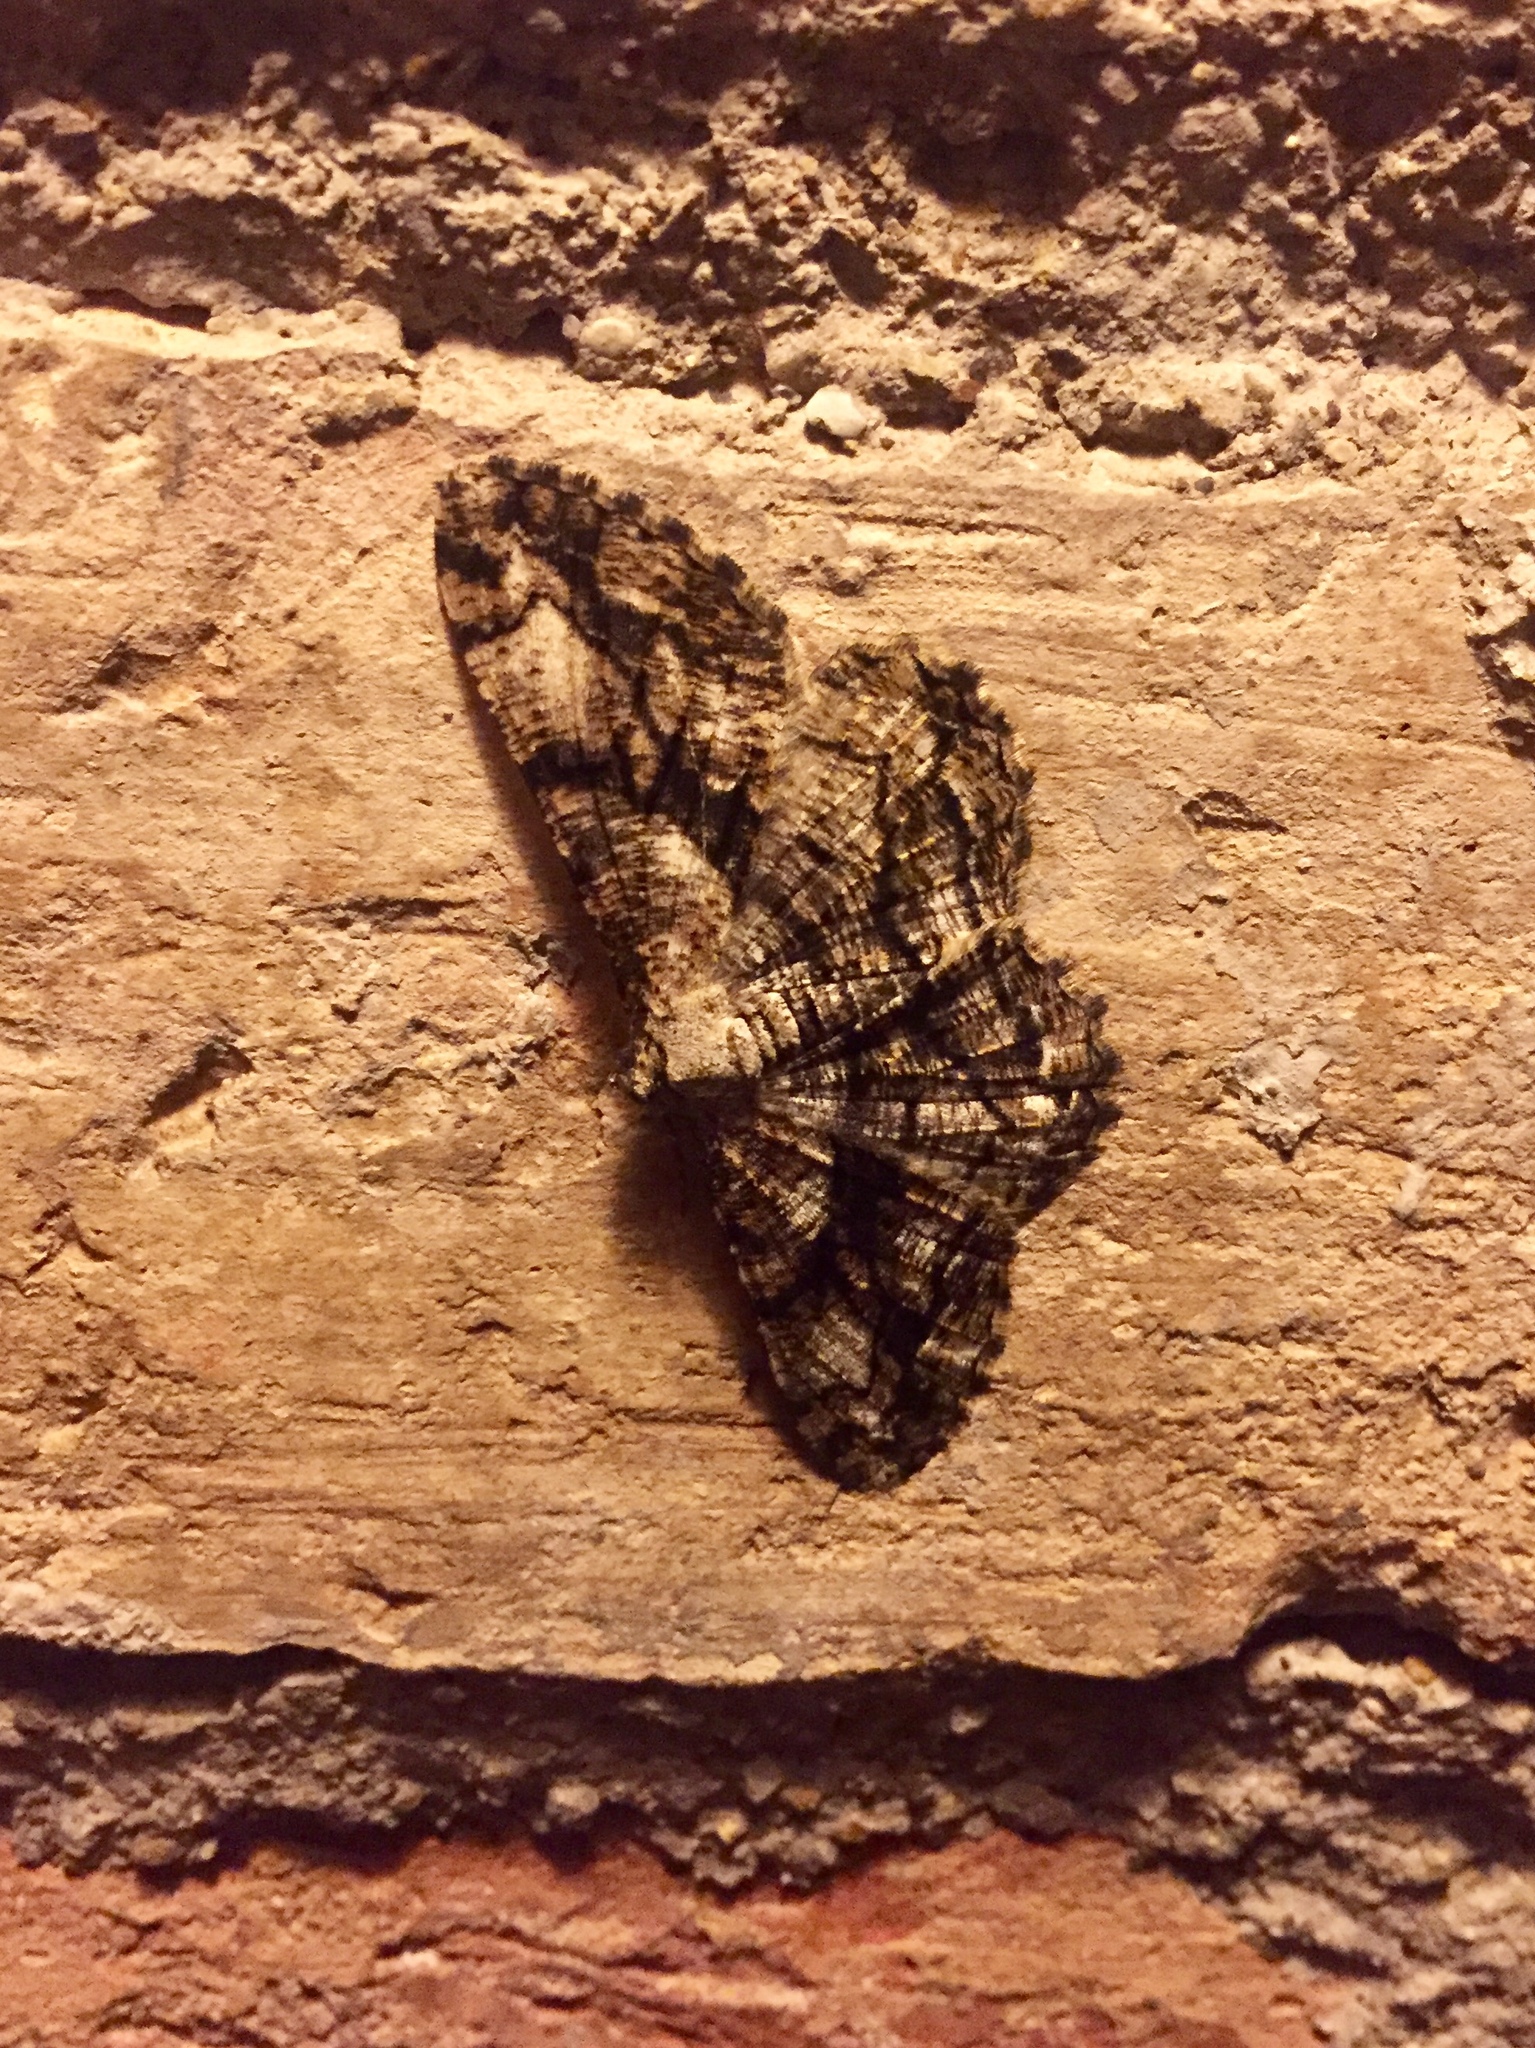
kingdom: Animalia
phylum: Arthropoda
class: Insecta
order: Lepidoptera
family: Geometridae
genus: Peribatodes
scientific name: Peribatodes umbraria
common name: Olive-tree beauty
